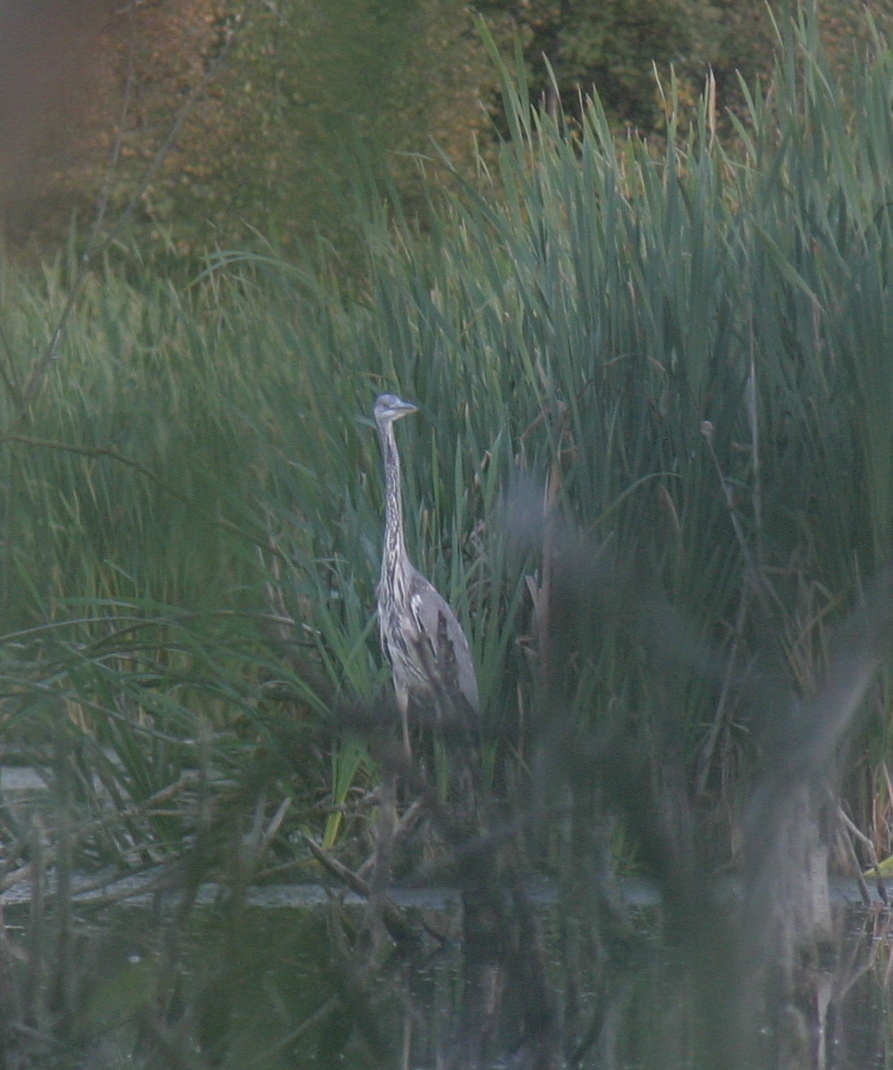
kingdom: Animalia
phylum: Chordata
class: Aves
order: Pelecaniformes
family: Ardeidae
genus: Ardea
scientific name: Ardea cinerea
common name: Grey heron
